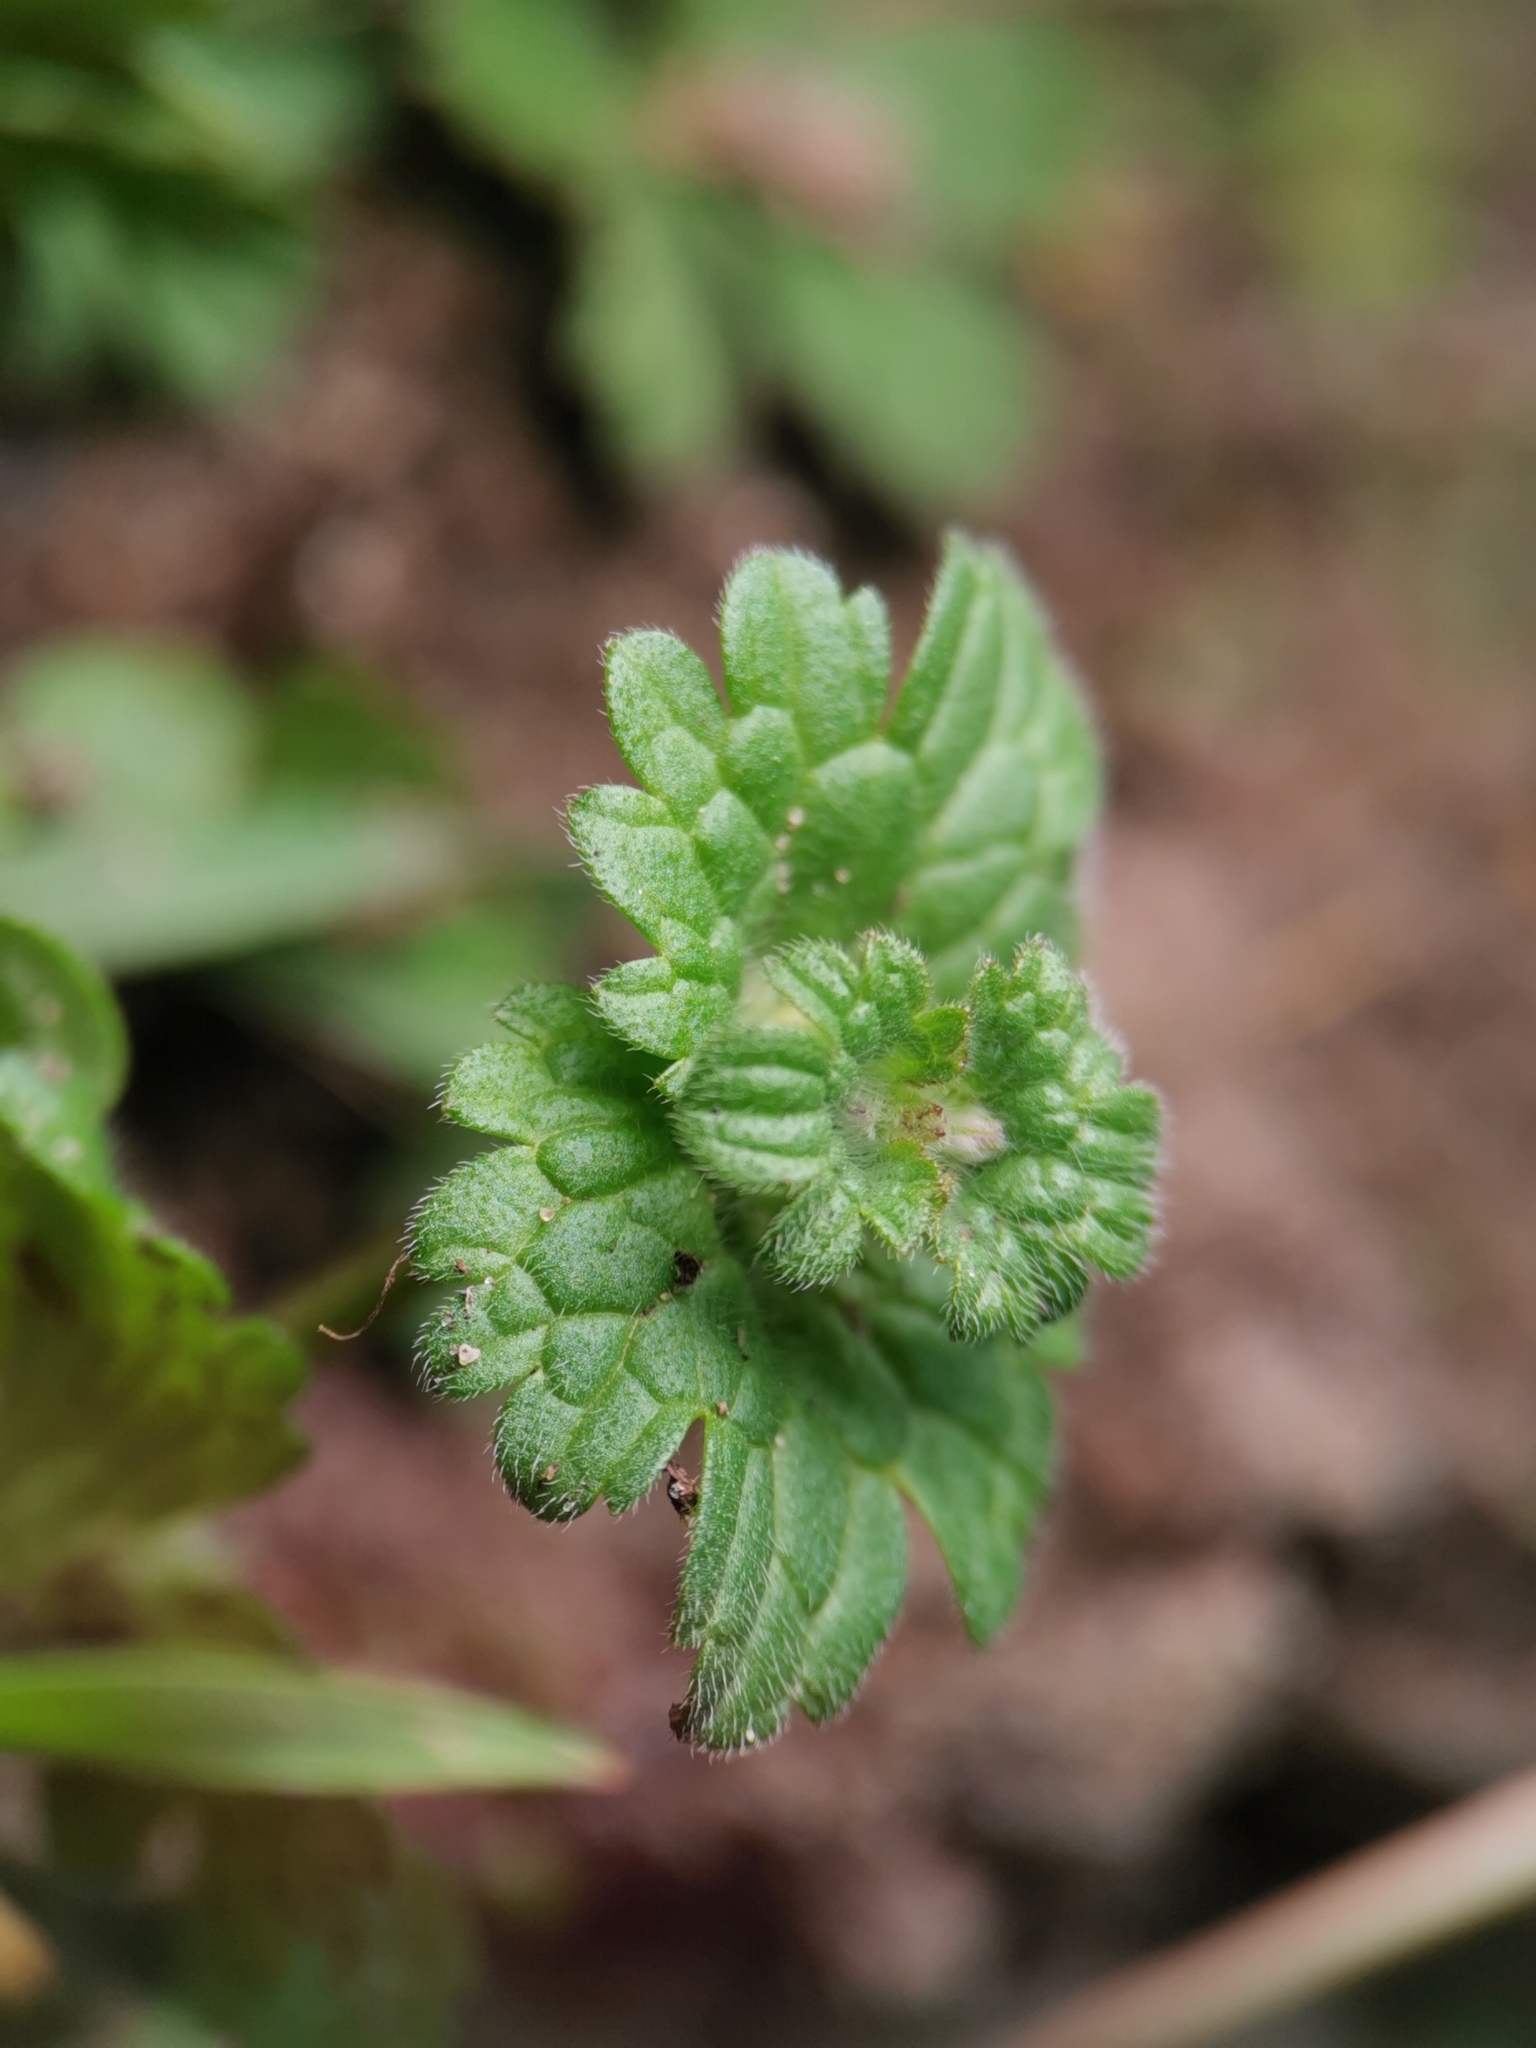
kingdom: Plantae
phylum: Tracheophyta
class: Magnoliopsida
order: Lamiales
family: Lamiaceae
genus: Lamium
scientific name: Lamium amplexicaule
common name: Henbit dead-nettle
